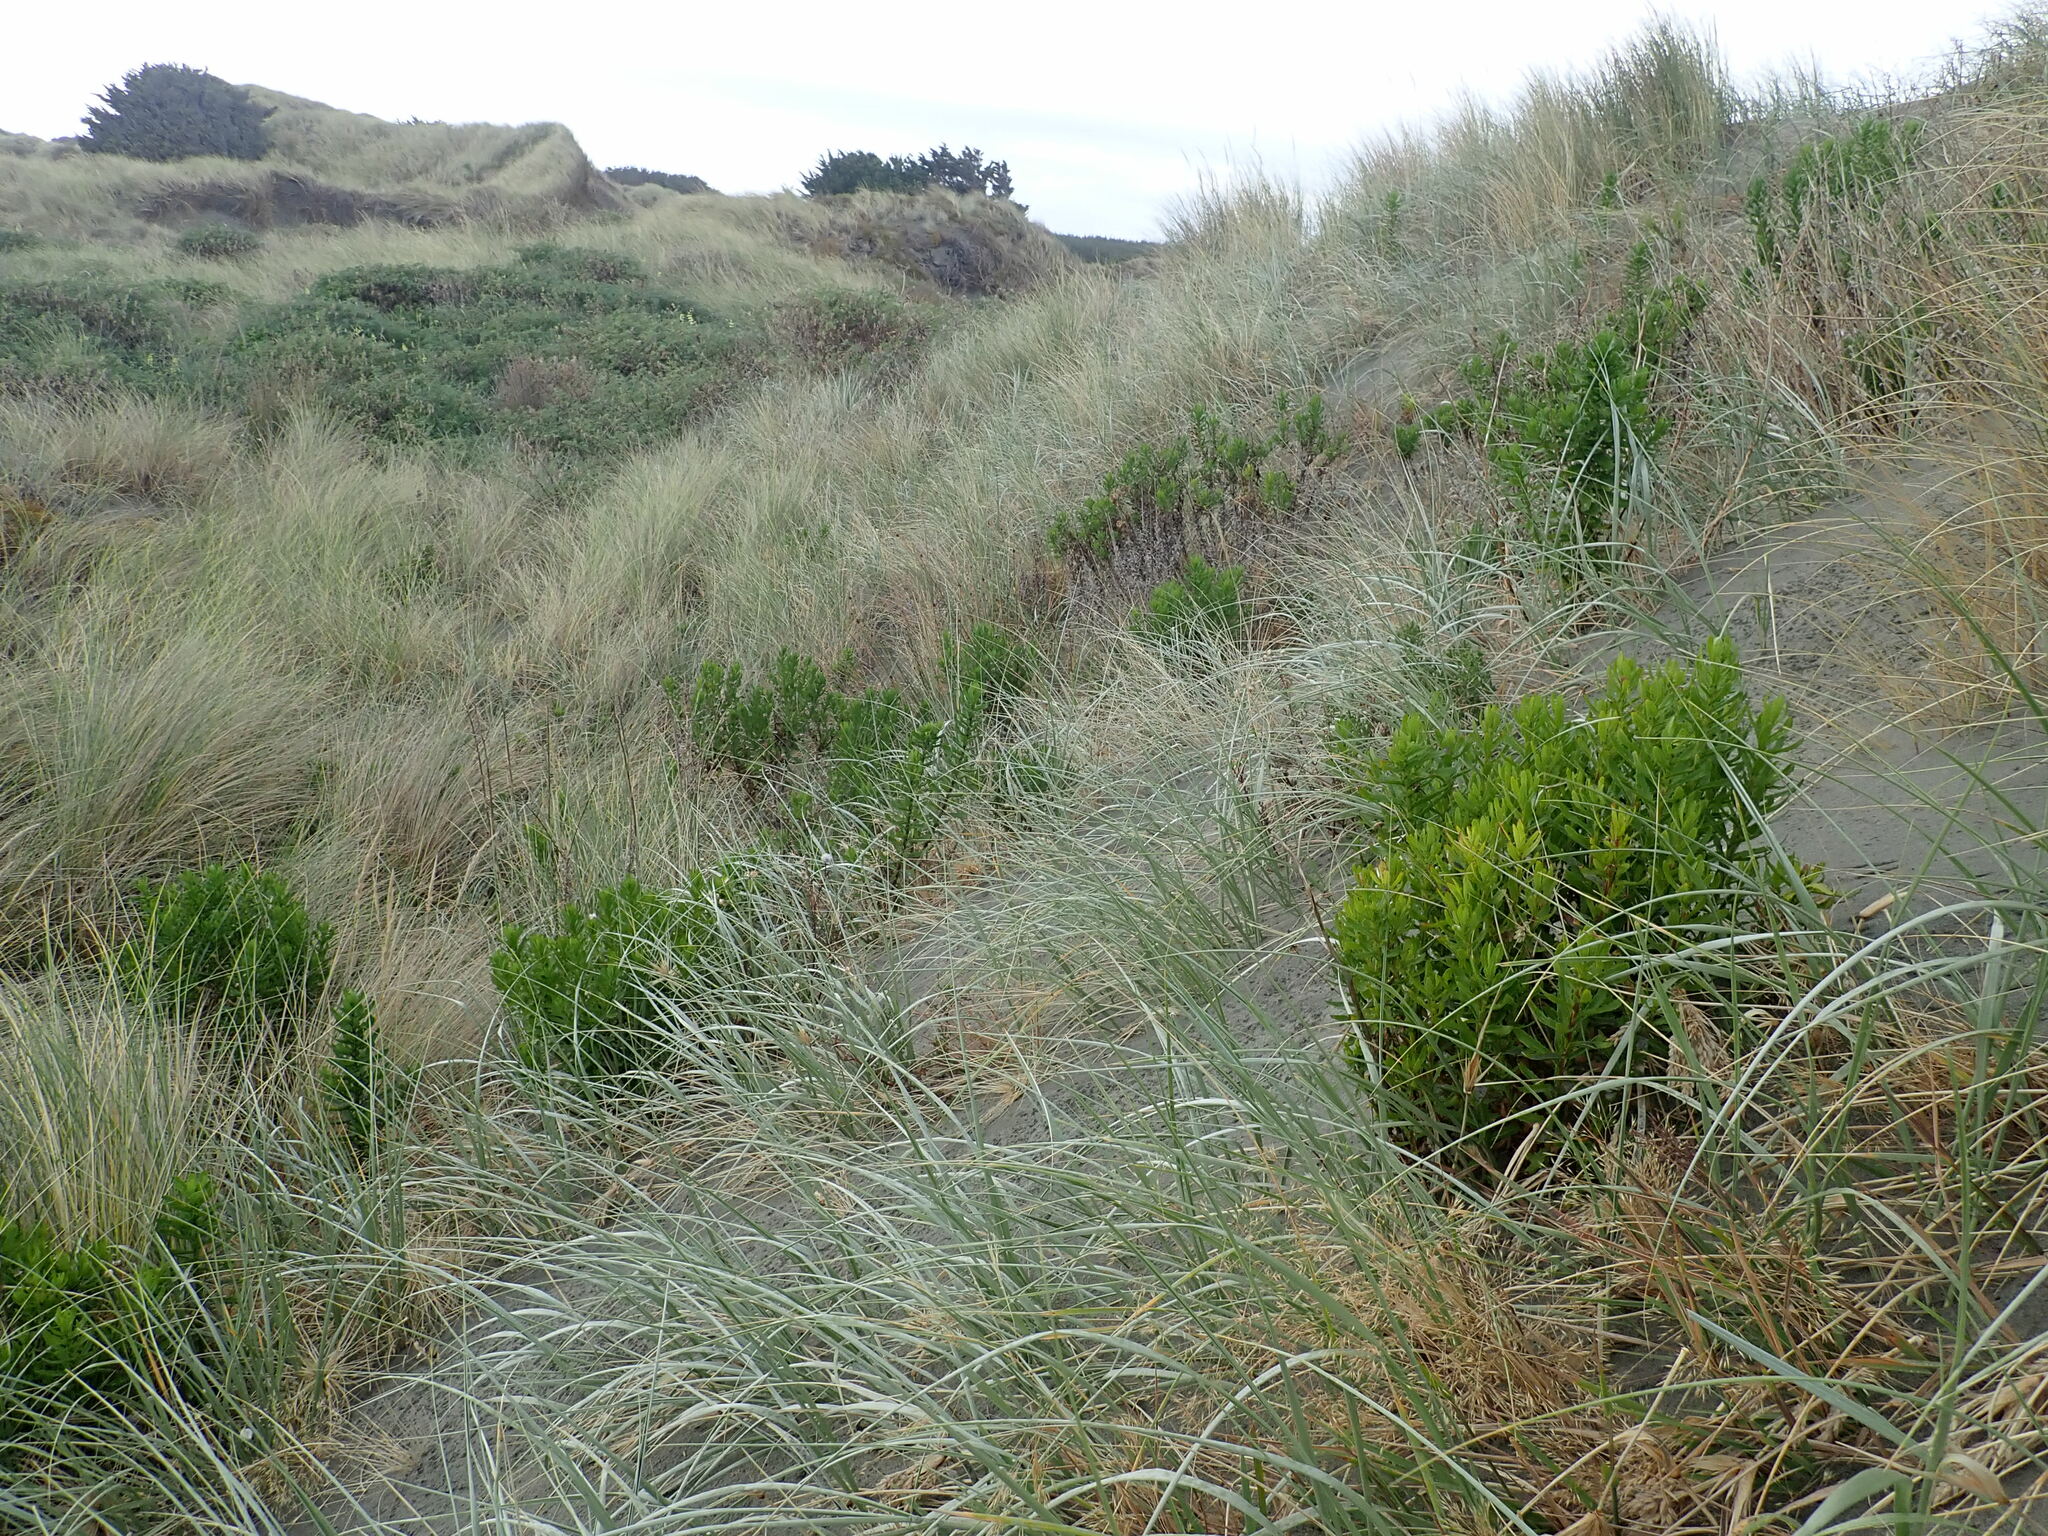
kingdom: Plantae
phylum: Tracheophyta
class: Magnoliopsida
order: Asterales
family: Asteraceae
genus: Senecio
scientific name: Senecio glastifolius
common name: Woad-leaved ragwort
